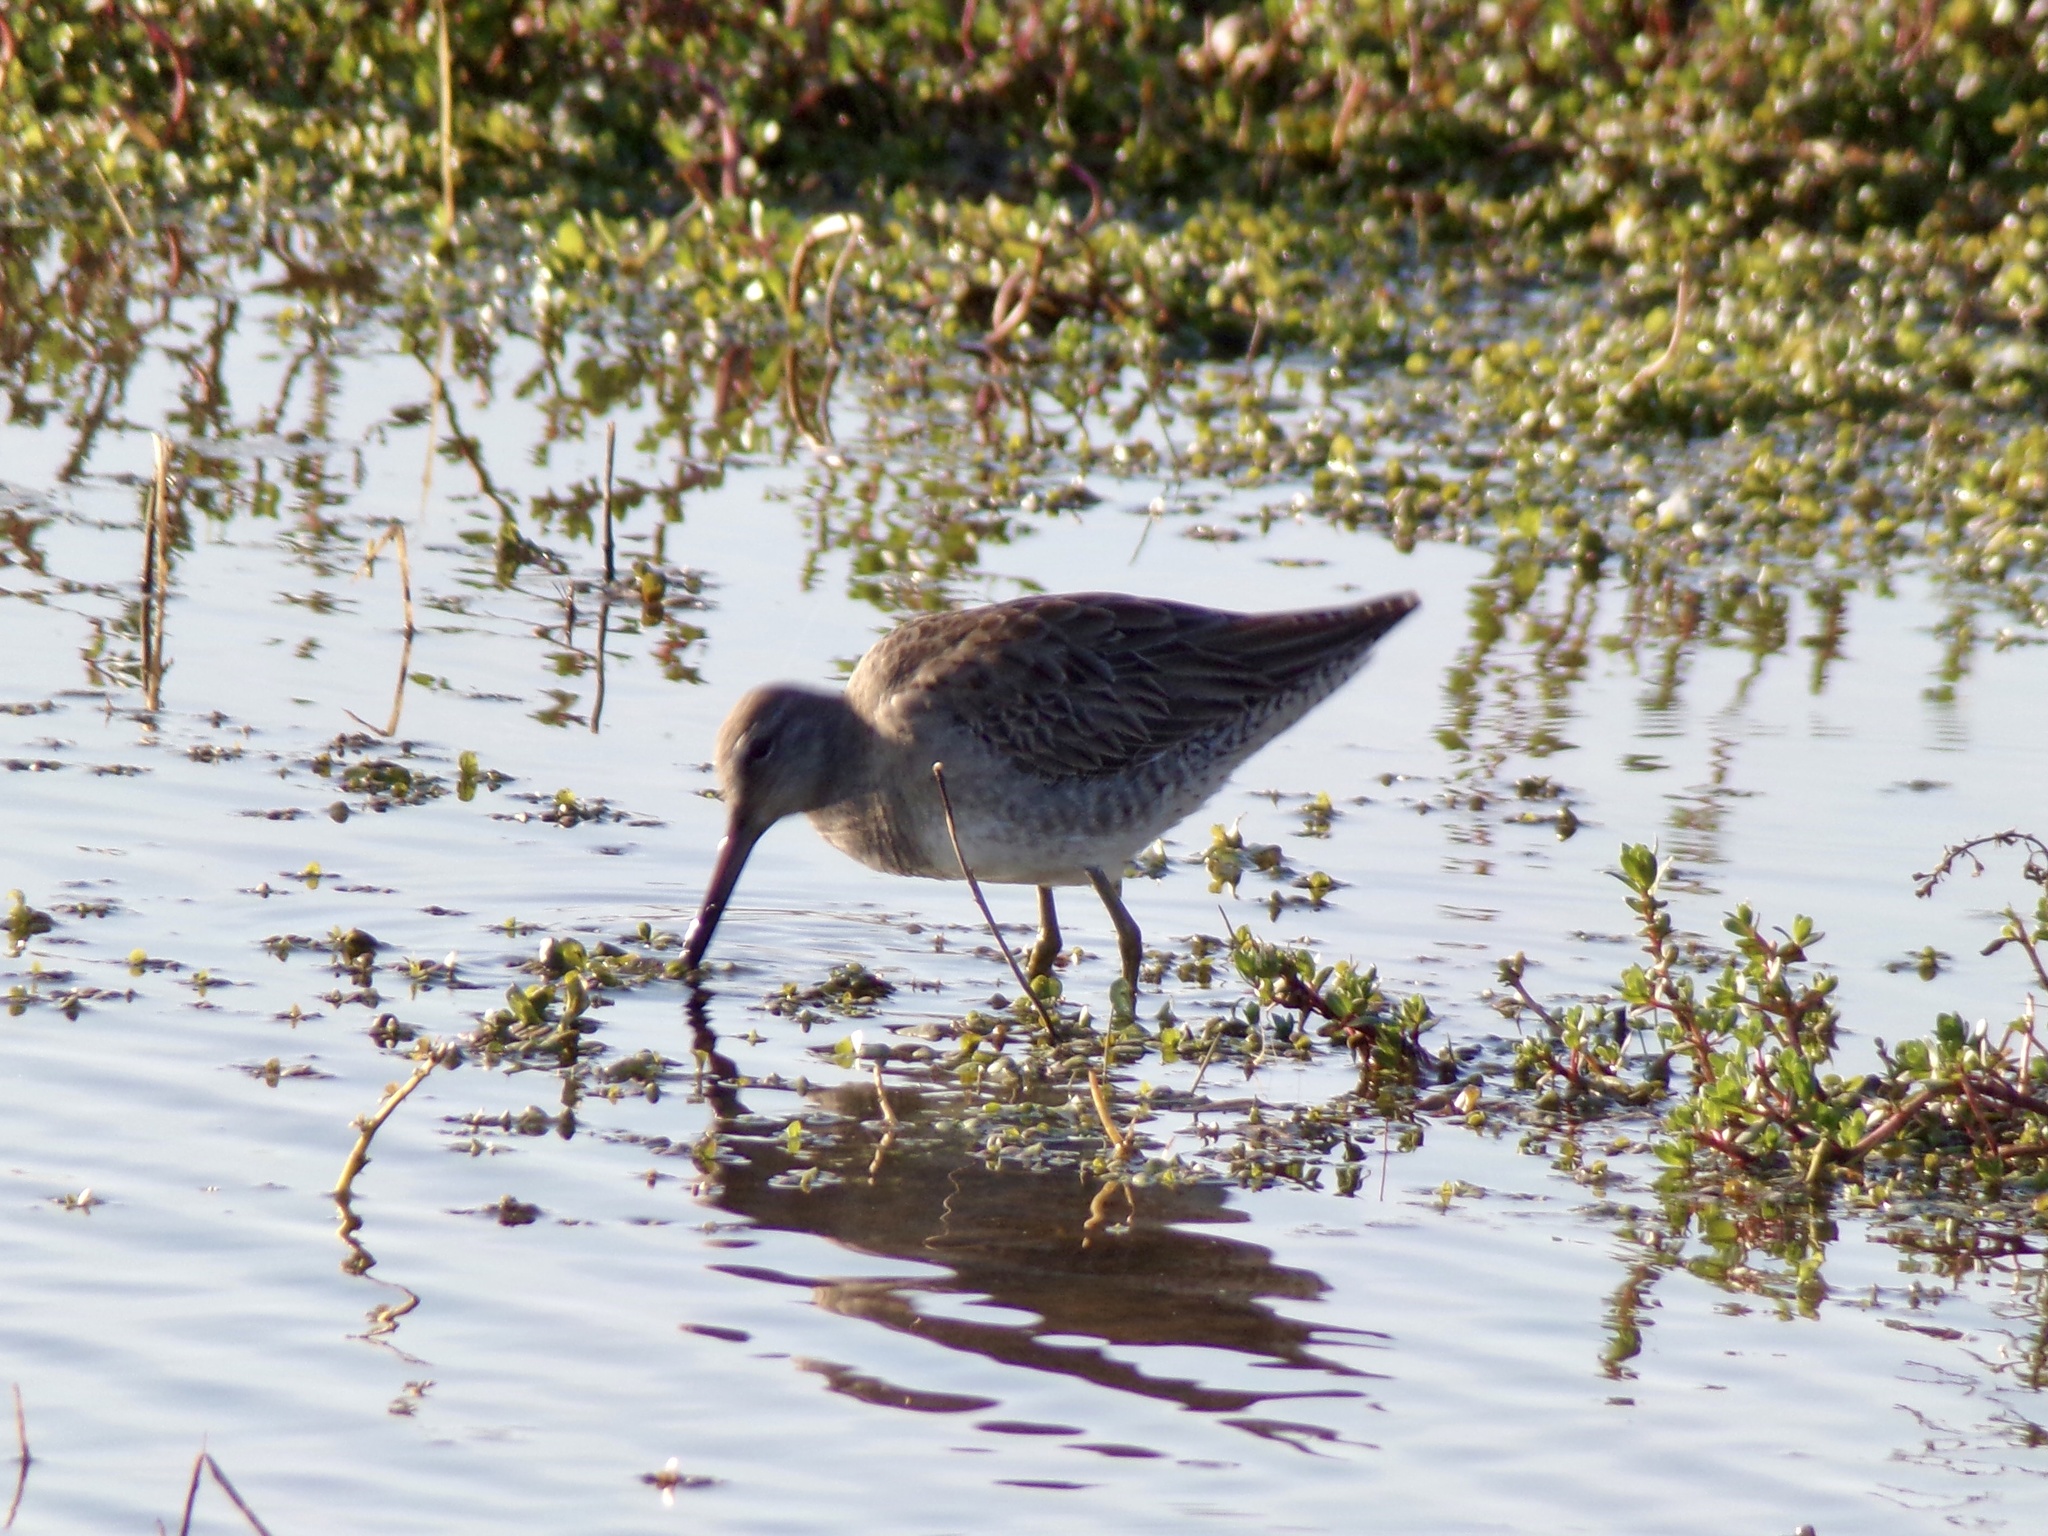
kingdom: Animalia
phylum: Chordata
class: Aves
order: Charadriiformes
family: Scolopacidae
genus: Limnodromus
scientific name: Limnodromus scolopaceus
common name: Long-billed dowitcher
